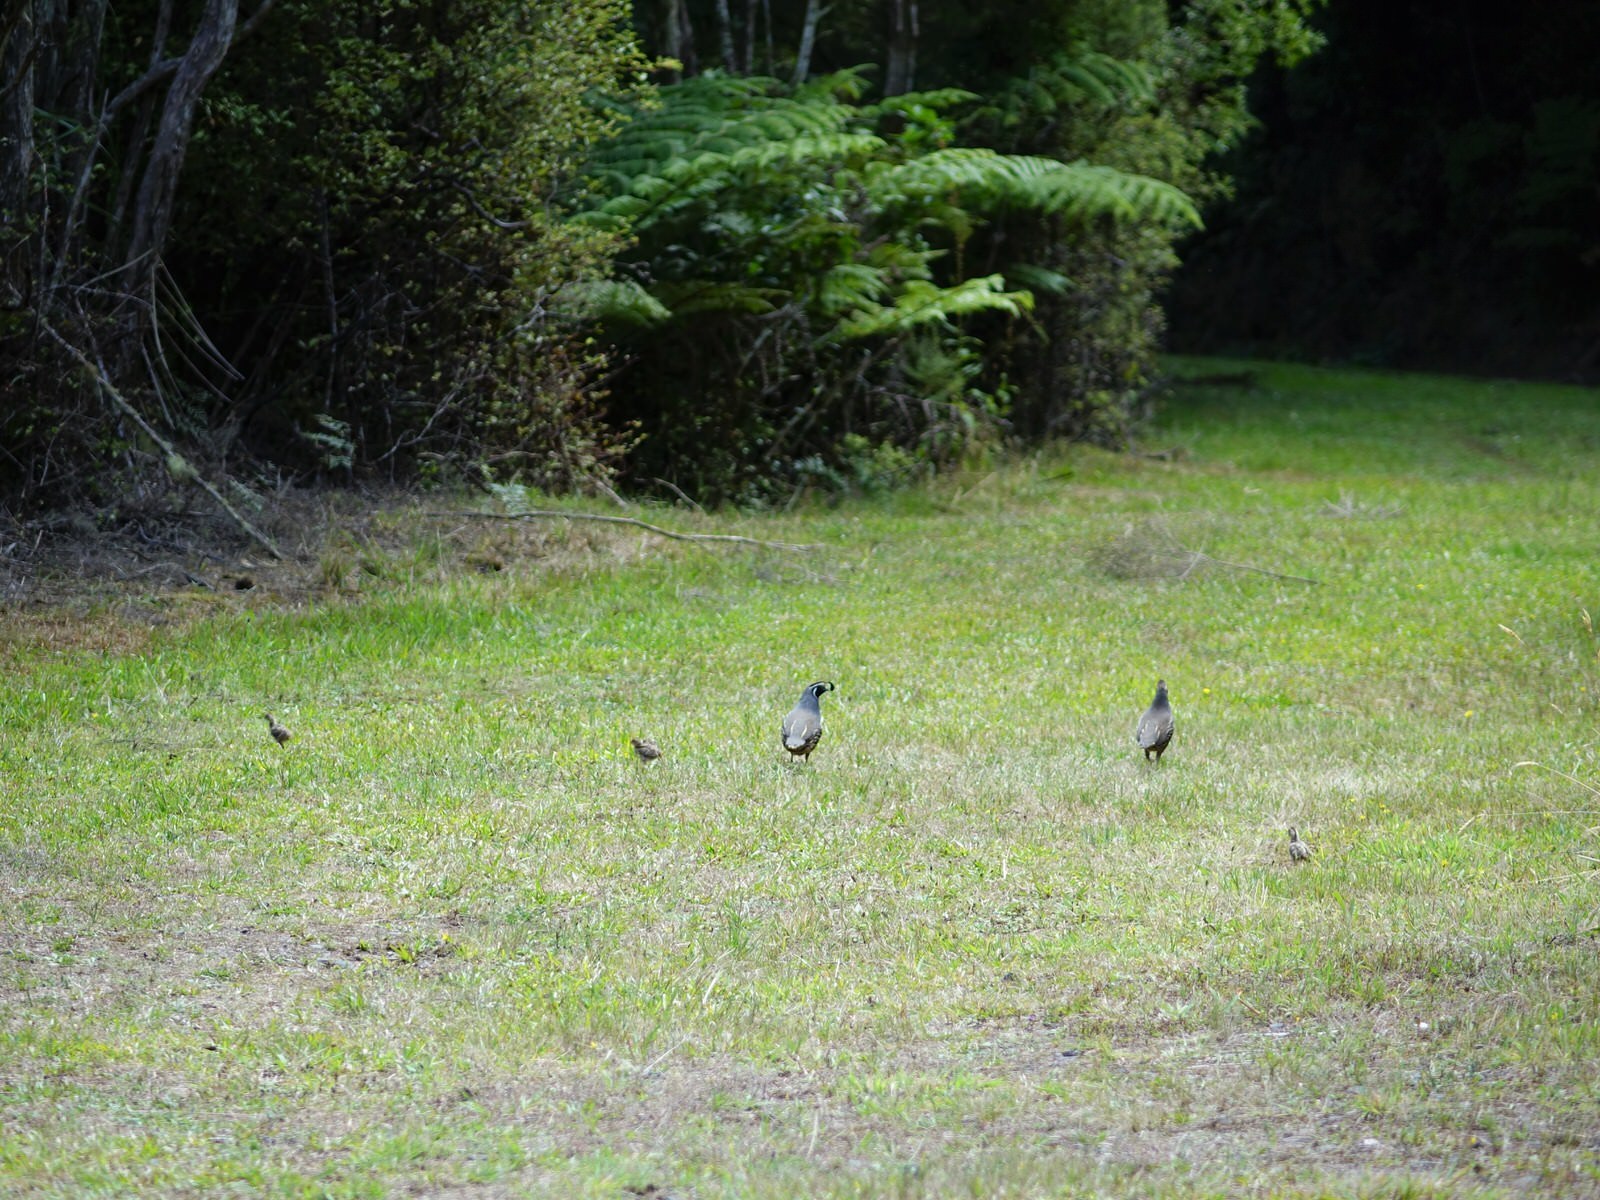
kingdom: Animalia
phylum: Chordata
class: Aves
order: Galliformes
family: Odontophoridae
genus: Callipepla
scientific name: Callipepla californica
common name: California quail
